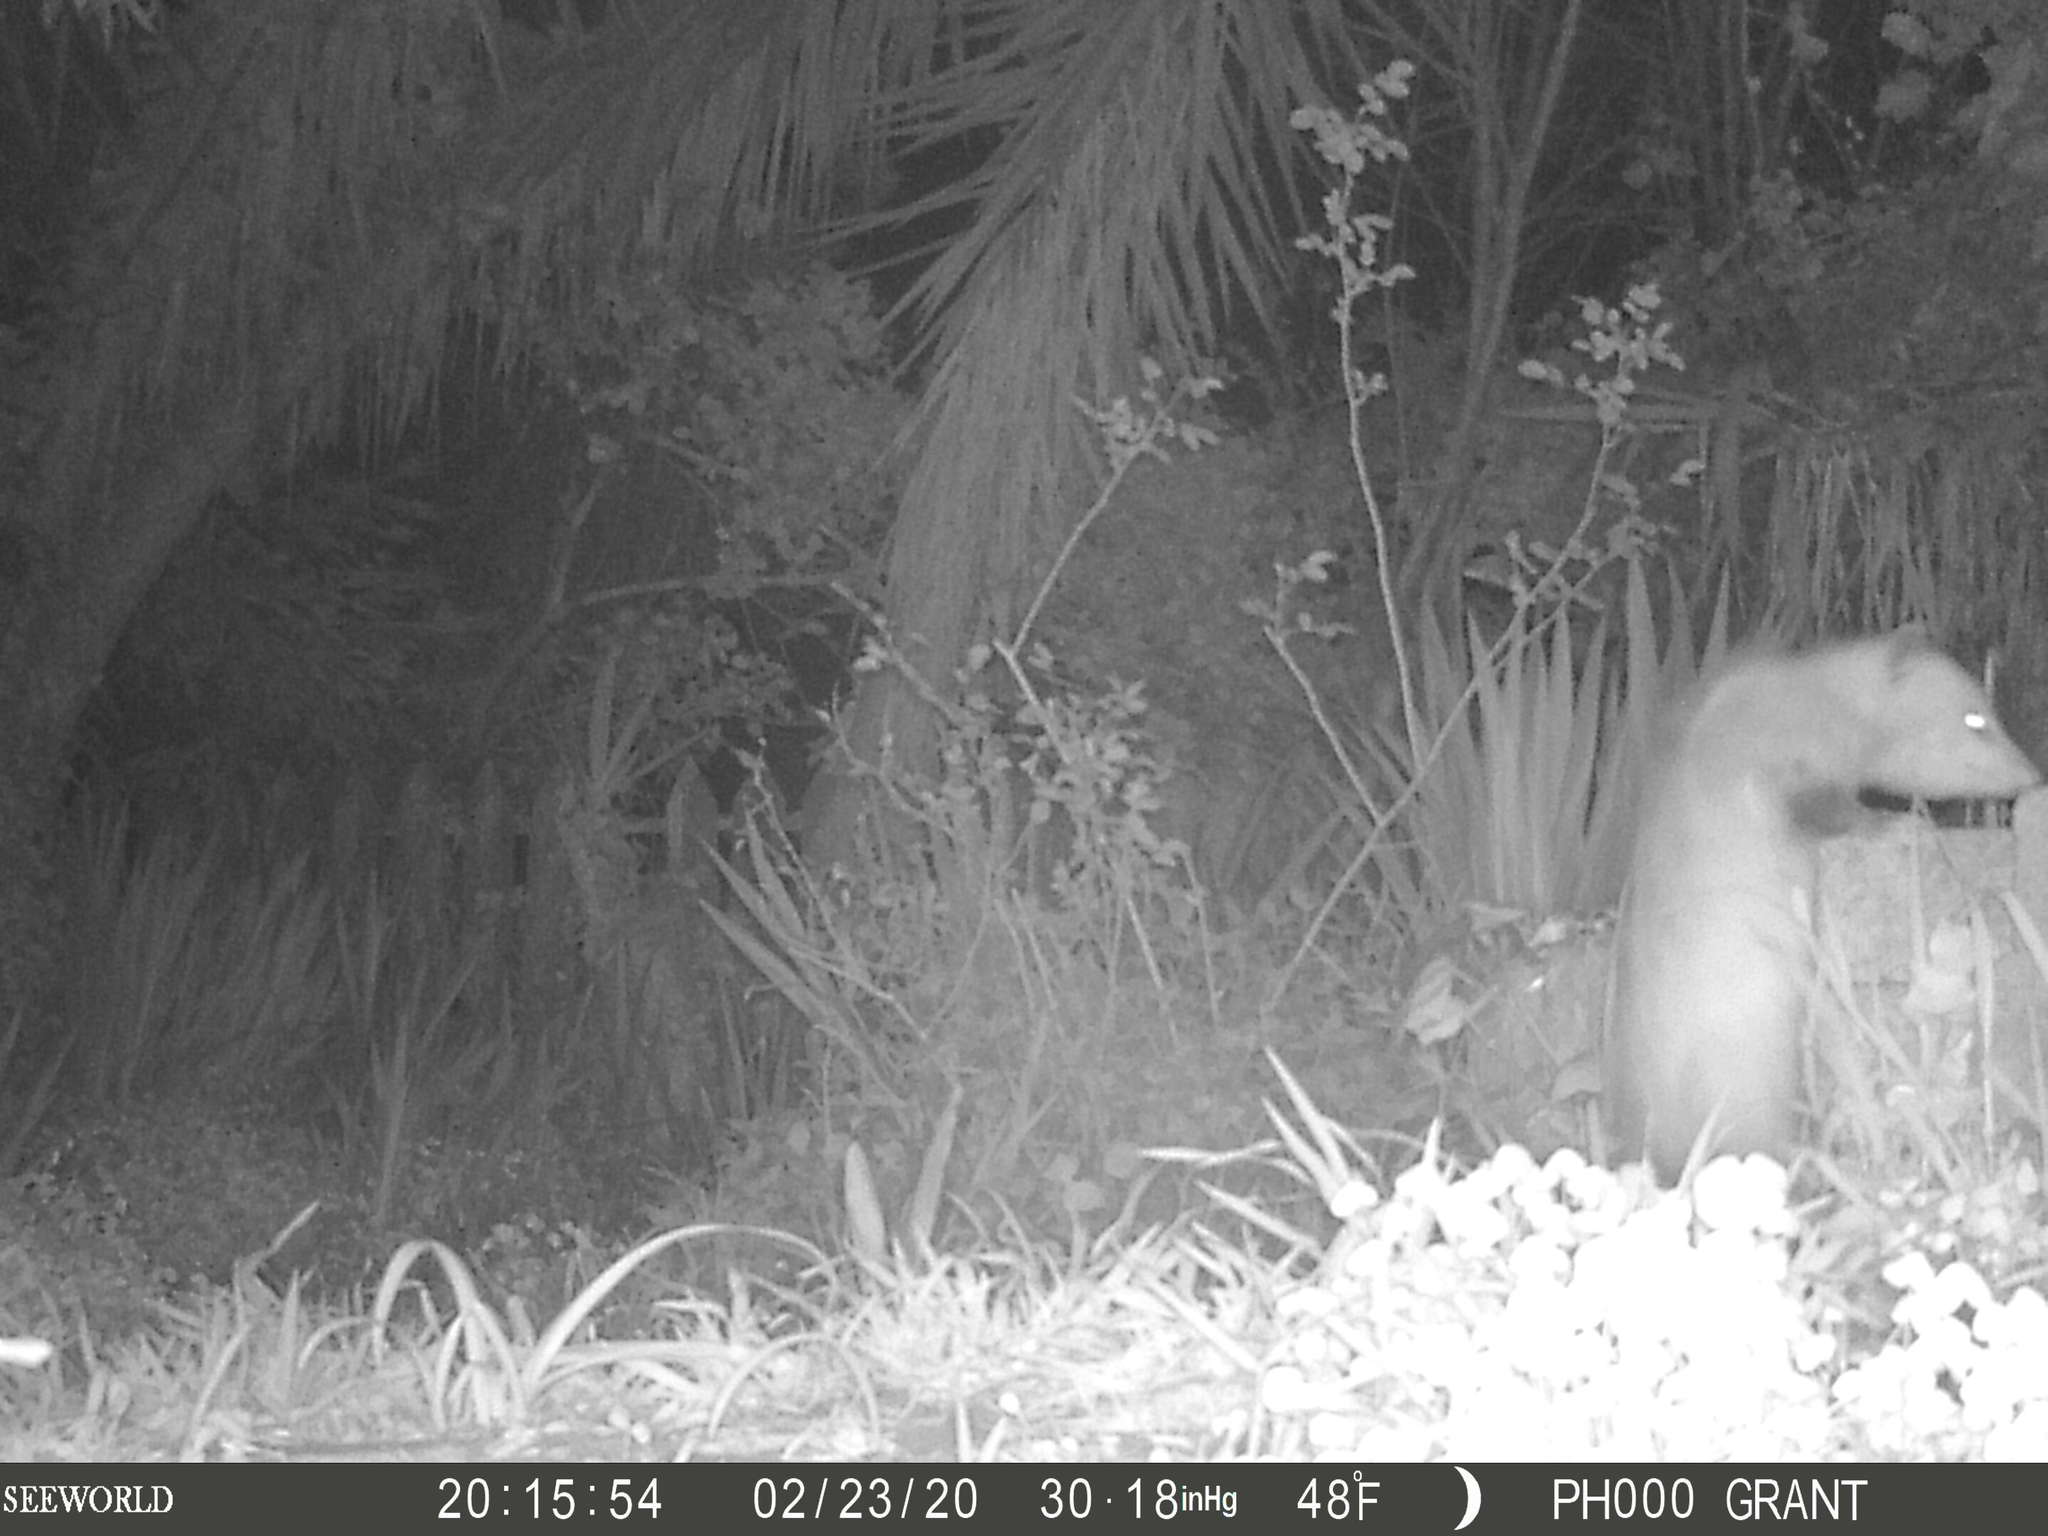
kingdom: Animalia
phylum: Chordata
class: Mammalia
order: Didelphimorphia
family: Didelphidae
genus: Didelphis
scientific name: Didelphis virginiana
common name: Virginia opossum
